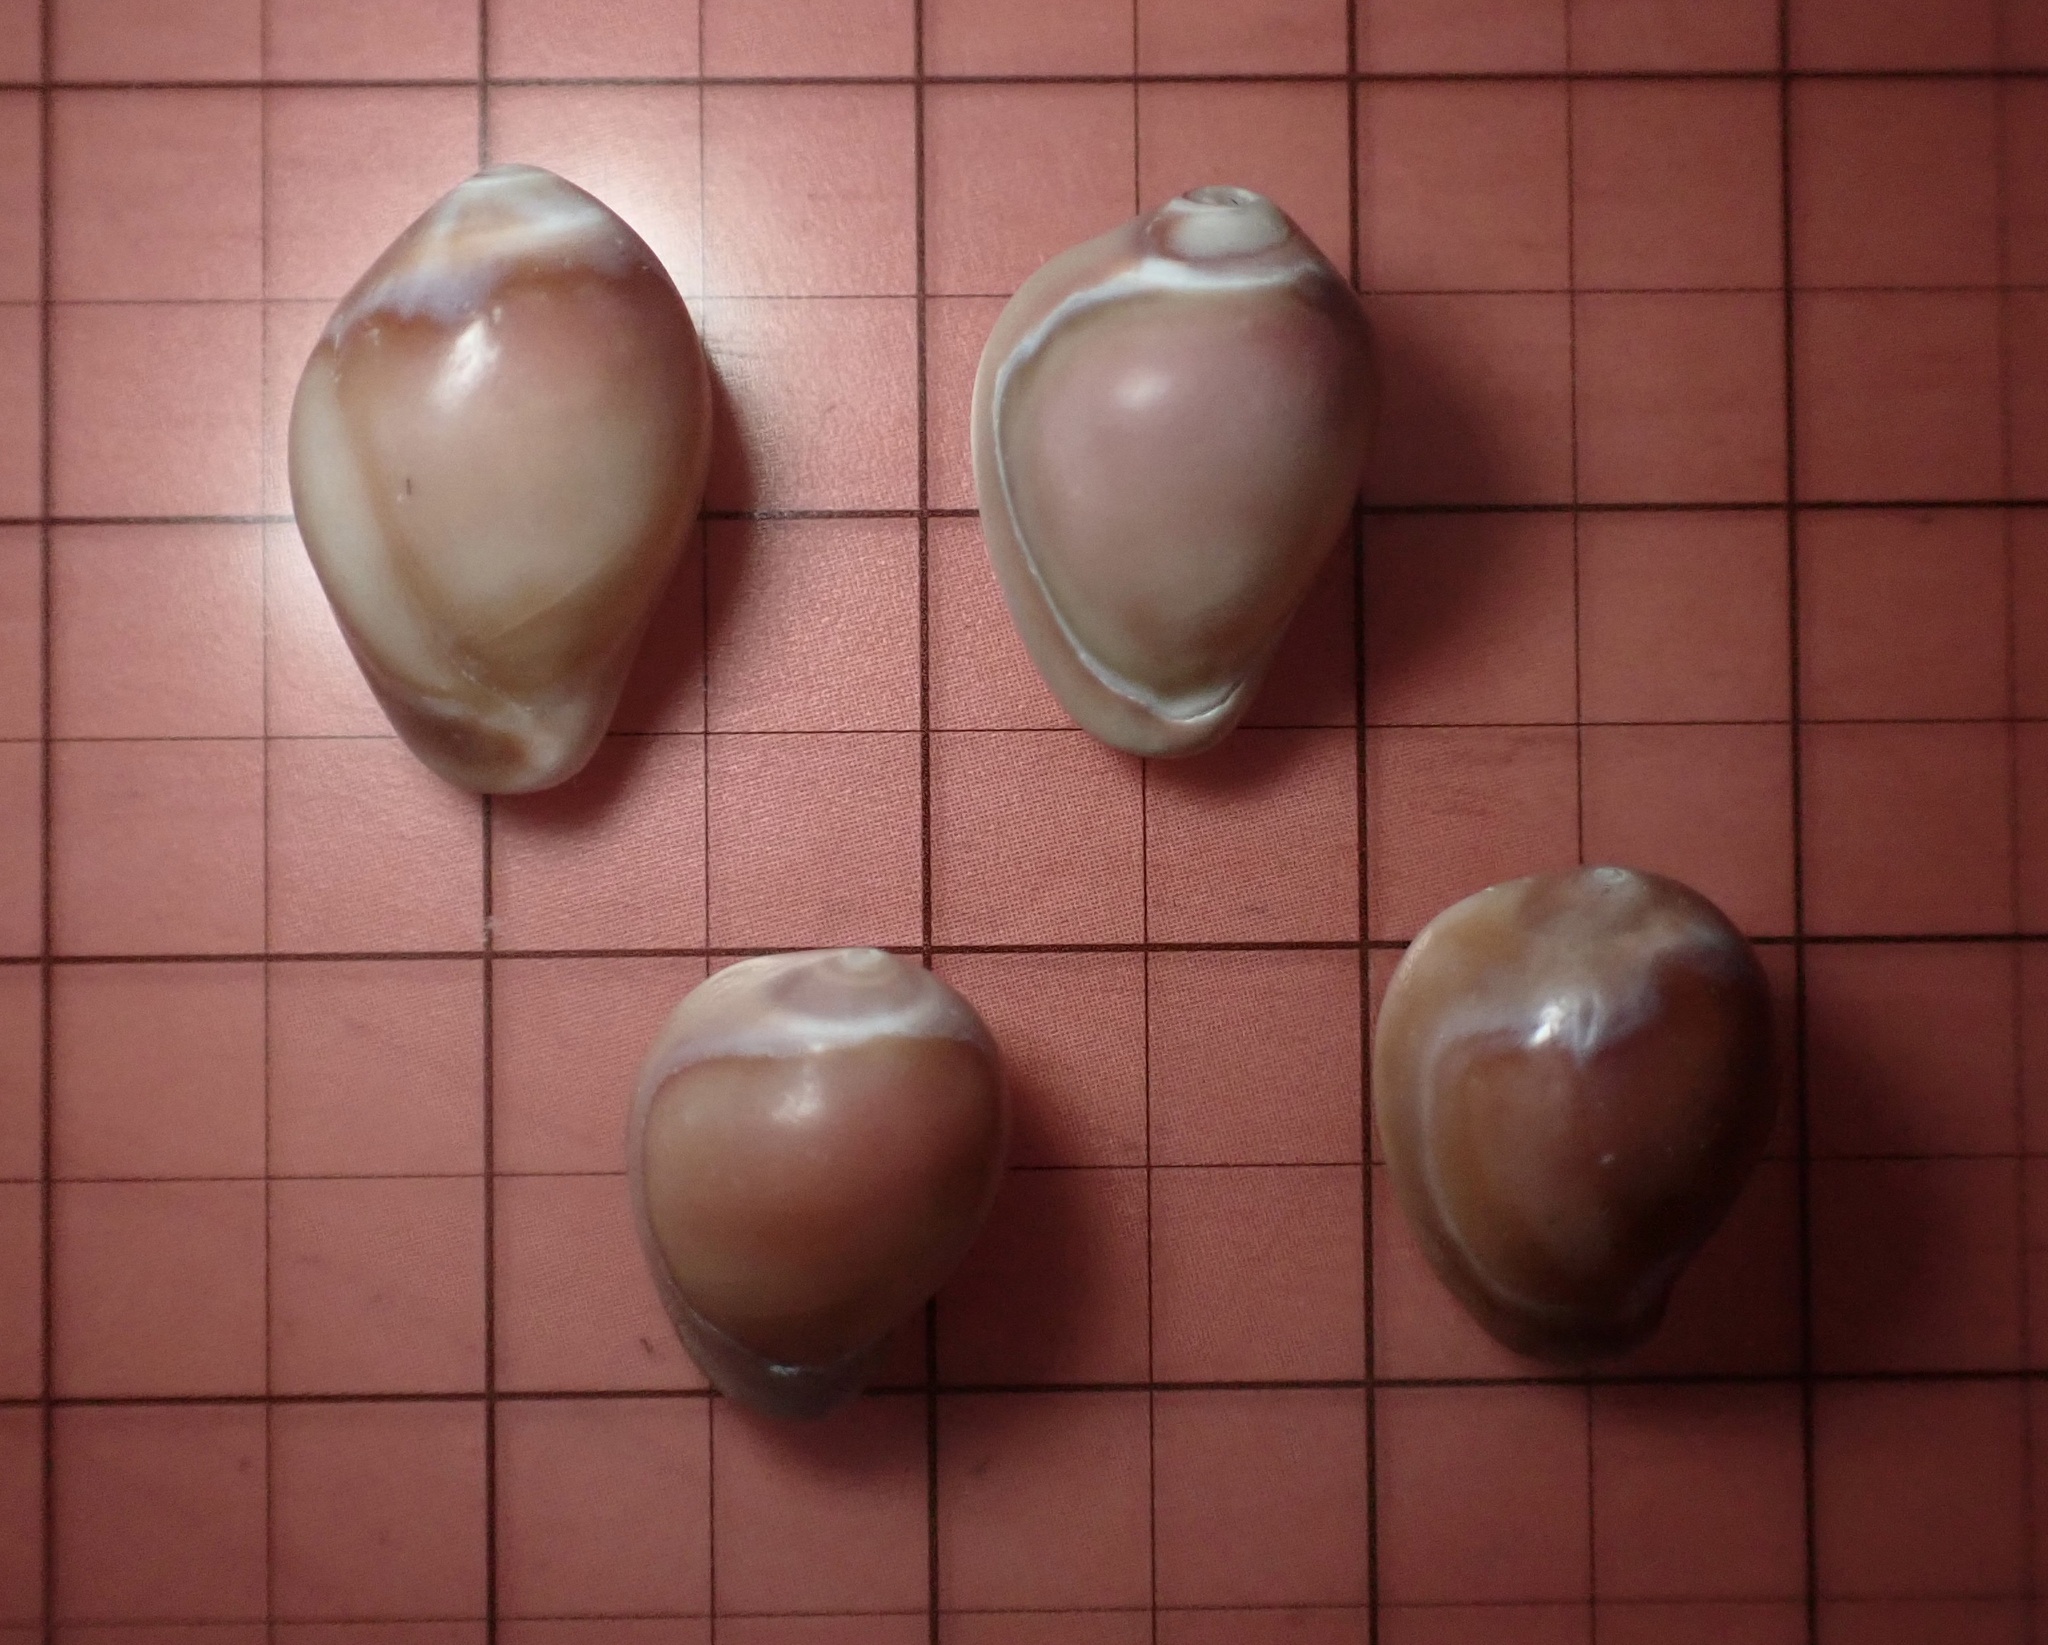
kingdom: Animalia
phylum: Mollusca
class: Gastropoda
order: Littorinimorpha
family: Eratoidae
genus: Hespererato
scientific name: Hespererato vitellina
